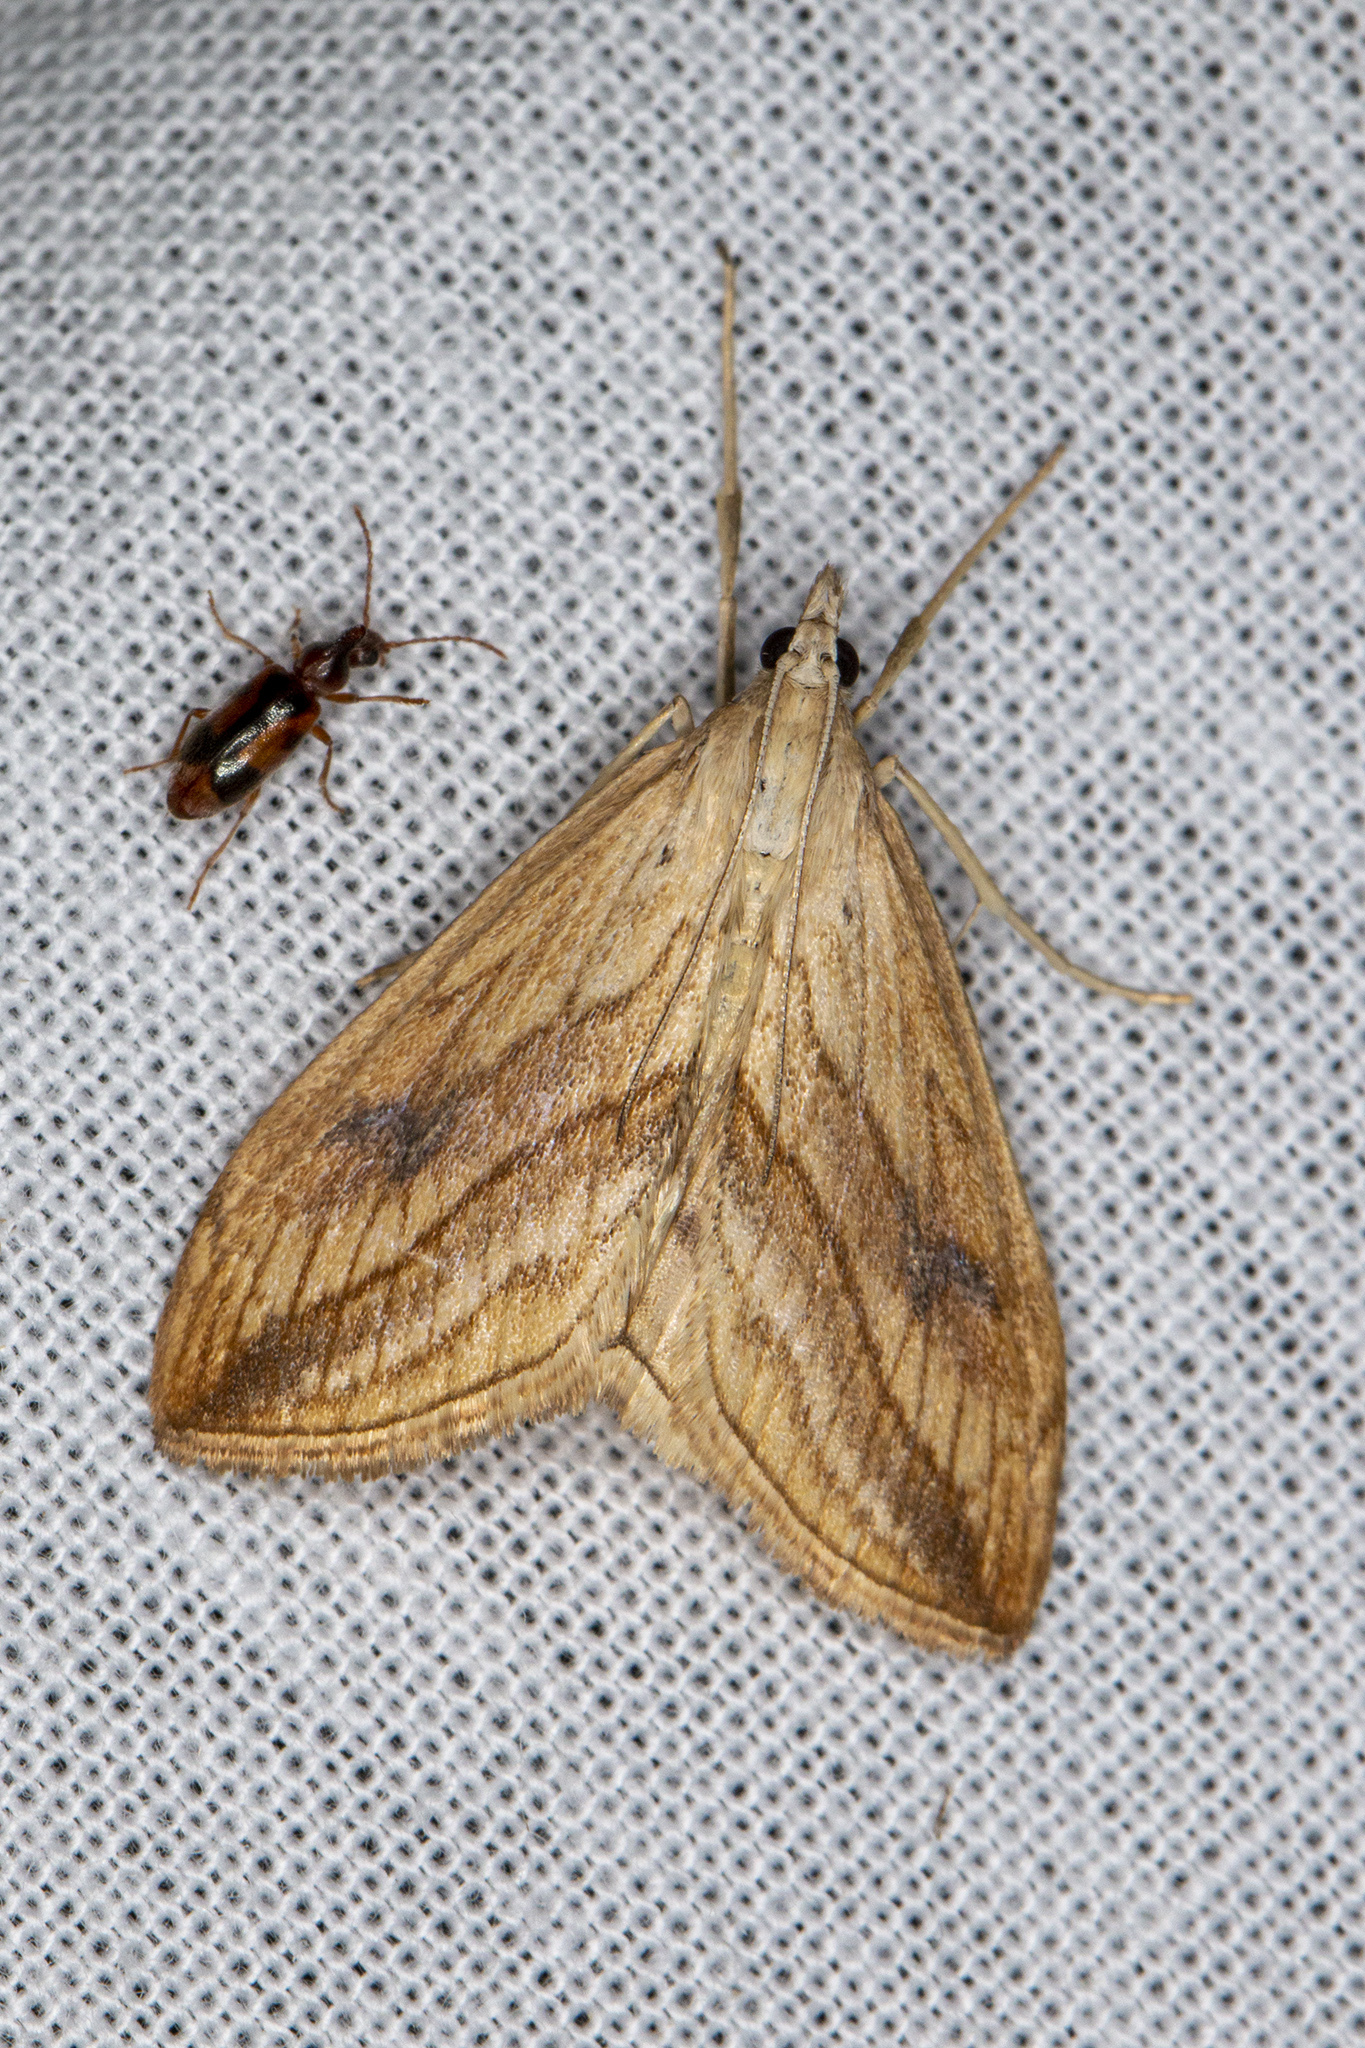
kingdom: Animalia
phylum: Arthropoda
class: Insecta
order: Lepidoptera
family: Crambidae
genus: Evergestis
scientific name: Evergestis forficalis
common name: Garden pebble
